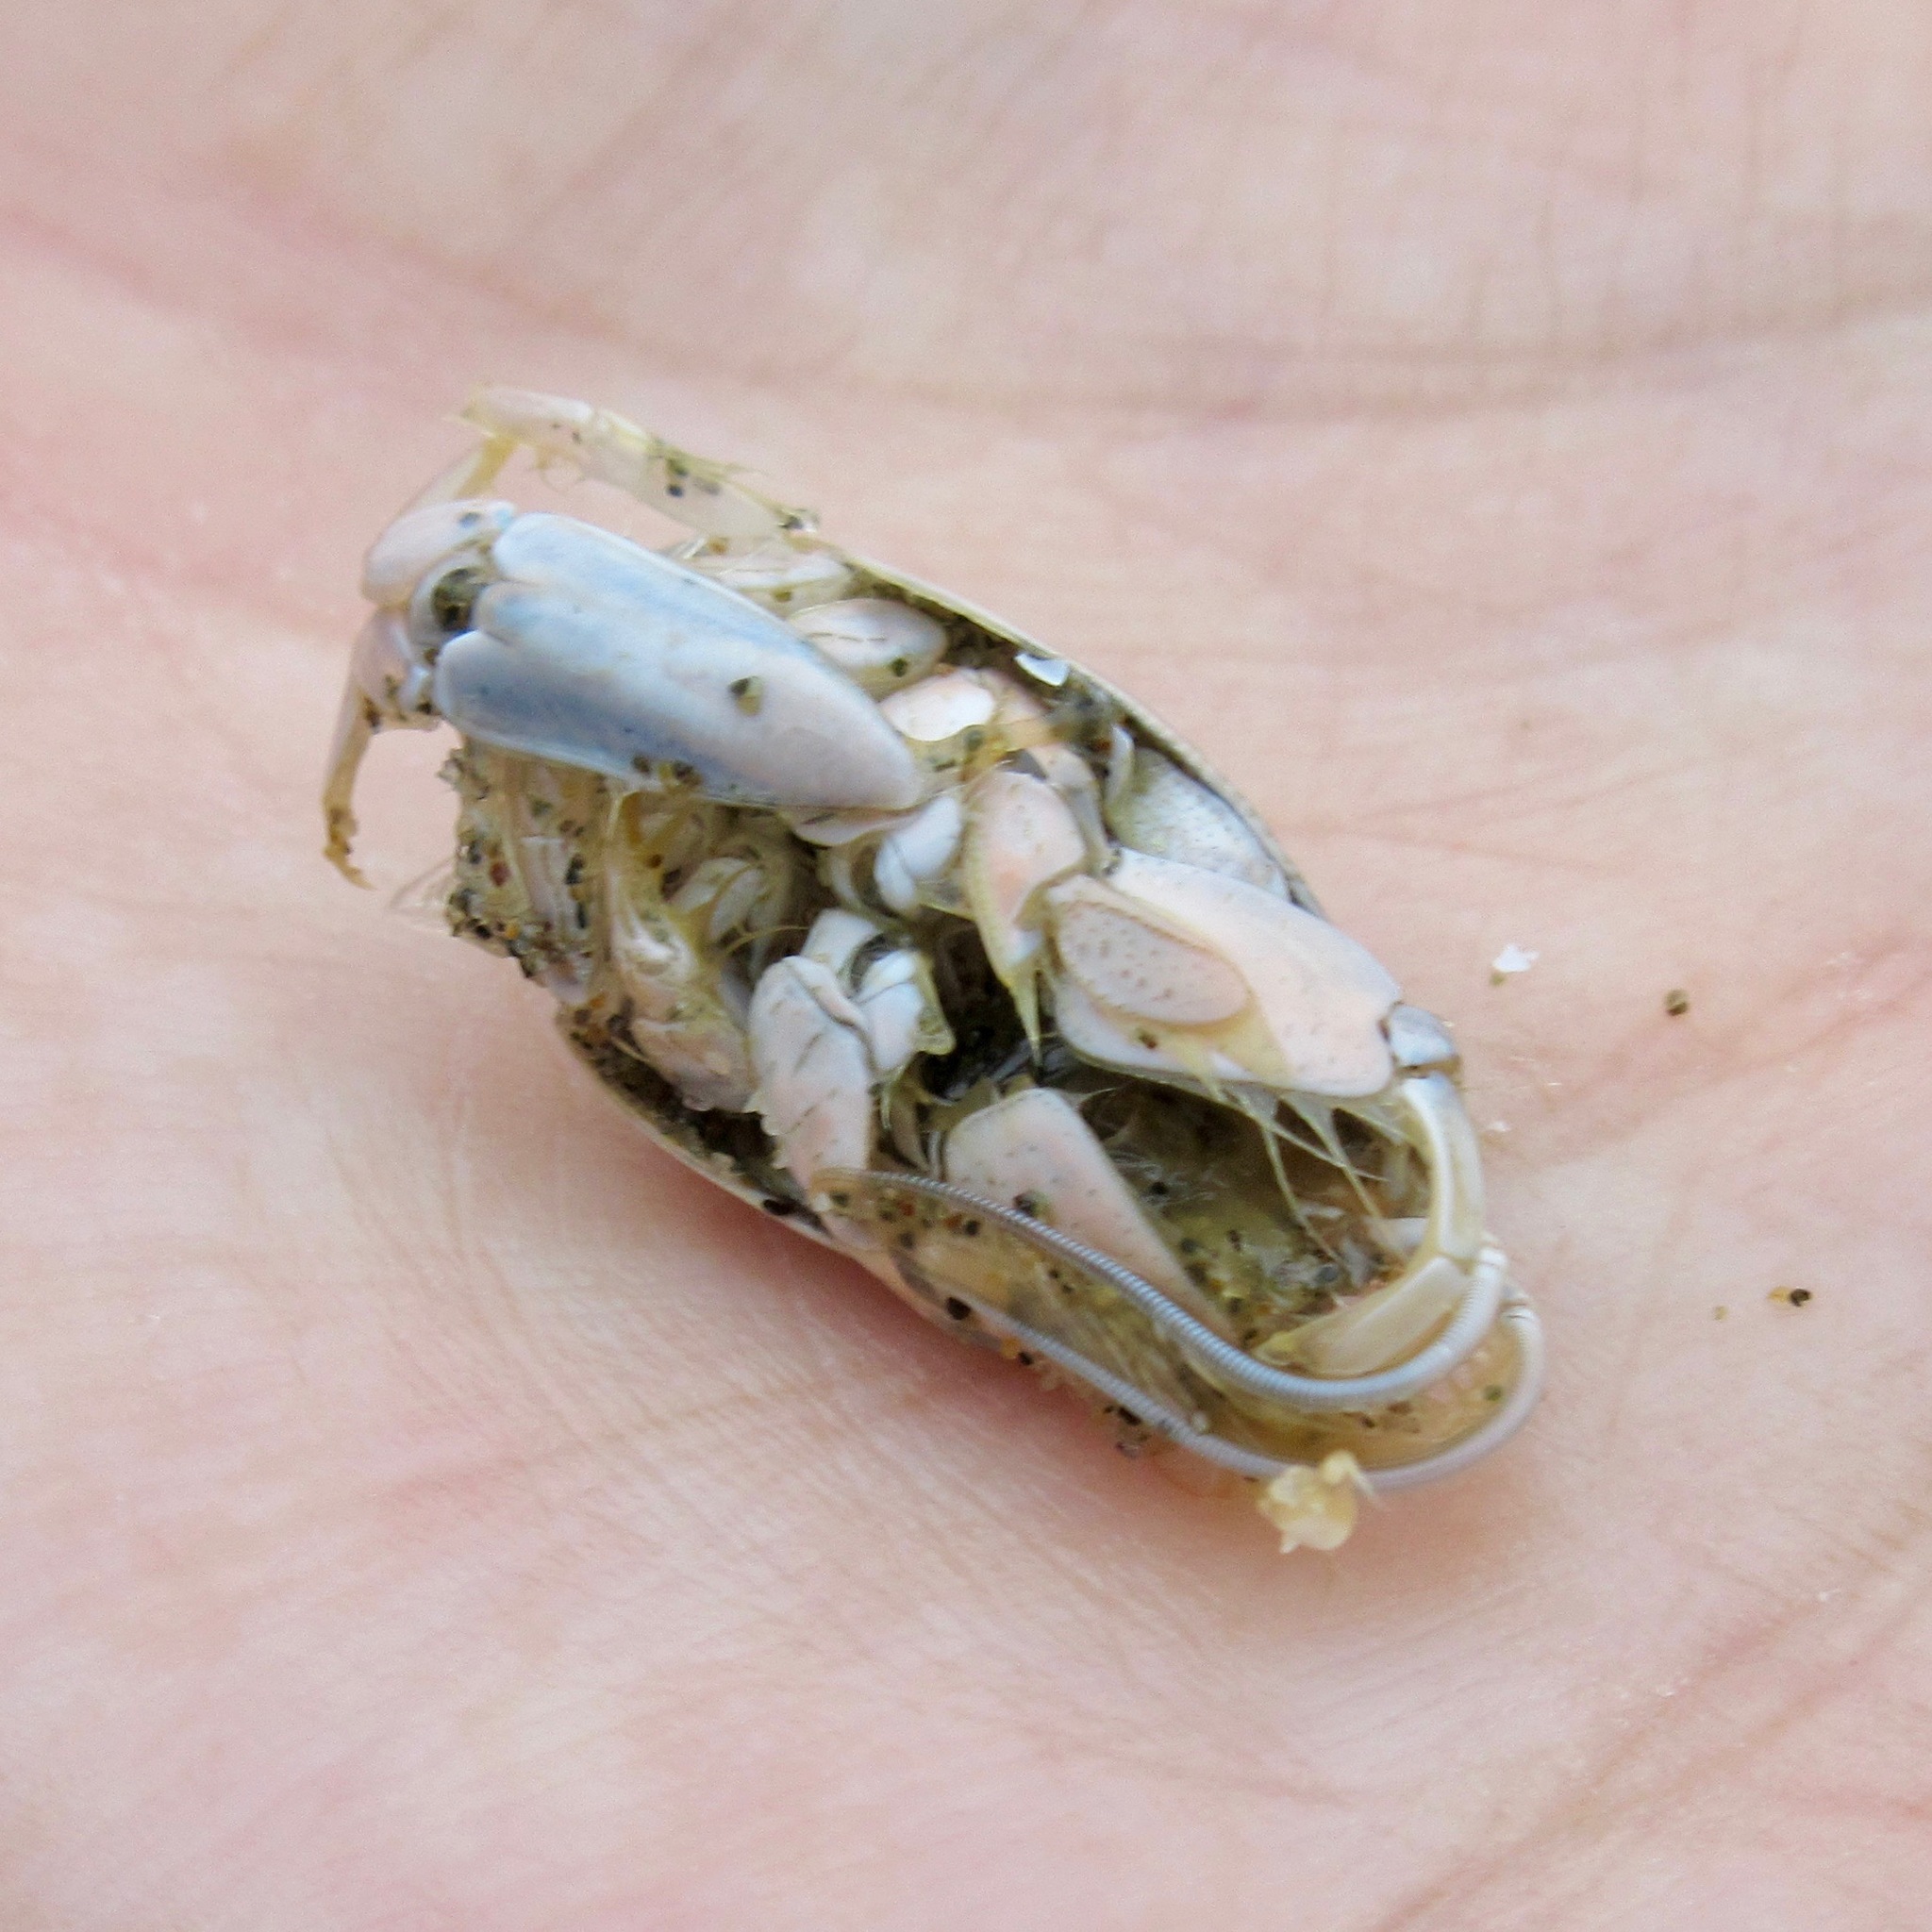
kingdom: Animalia
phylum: Arthropoda
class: Malacostraca
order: Decapoda
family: Hippidae
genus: Emerita
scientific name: Emerita analoga
